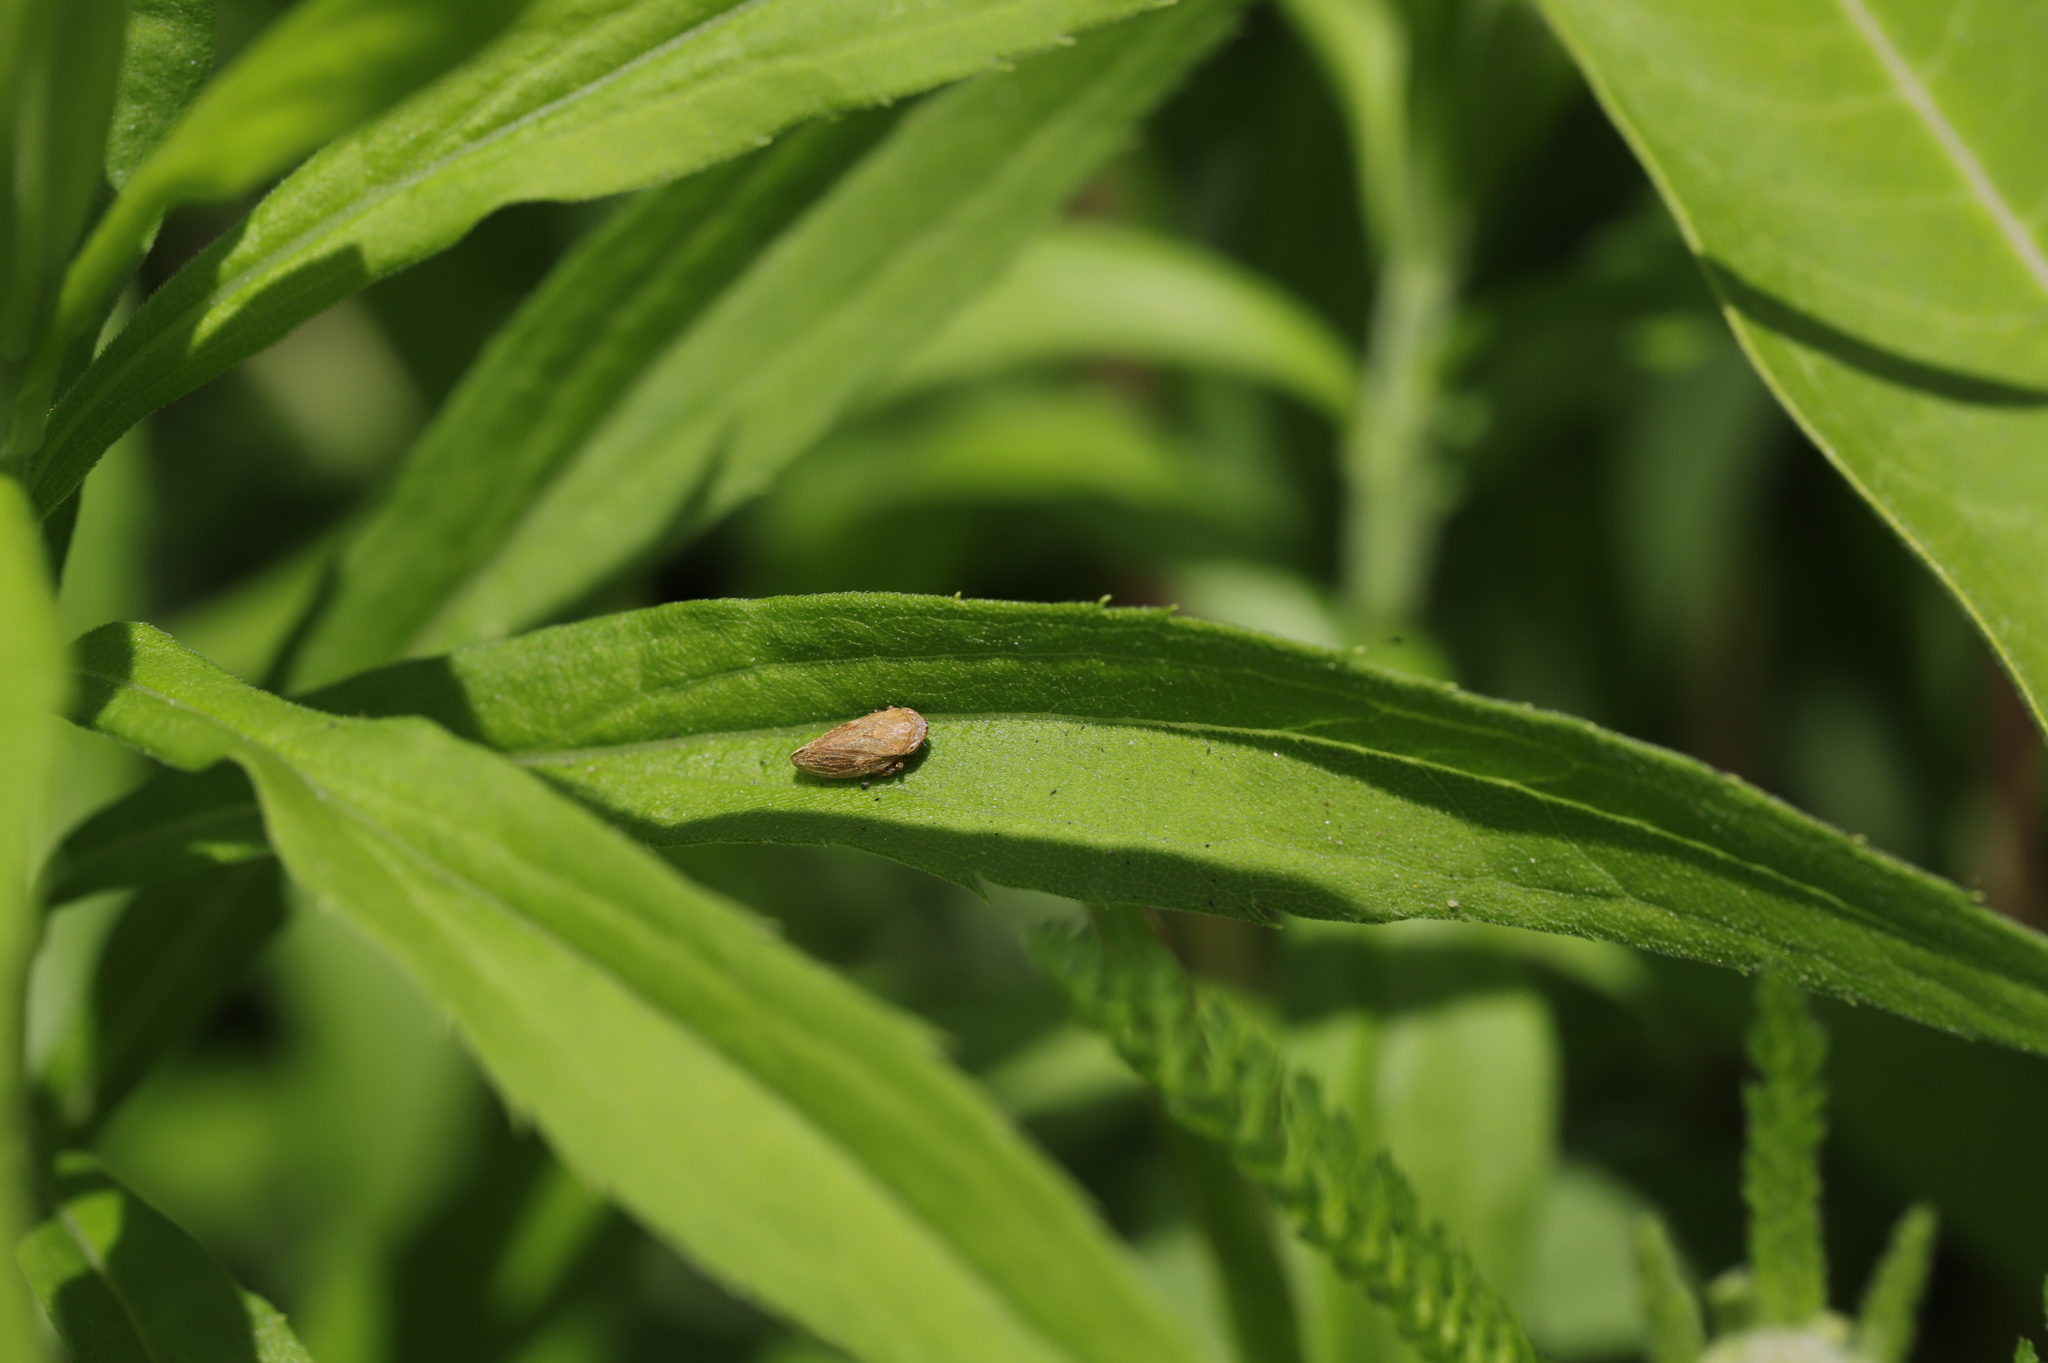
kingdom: Animalia
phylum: Arthropoda
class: Insecta
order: Hemiptera
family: Aphrophoridae
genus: Philaenus
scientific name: Philaenus spumarius
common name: Meadow spittlebug
